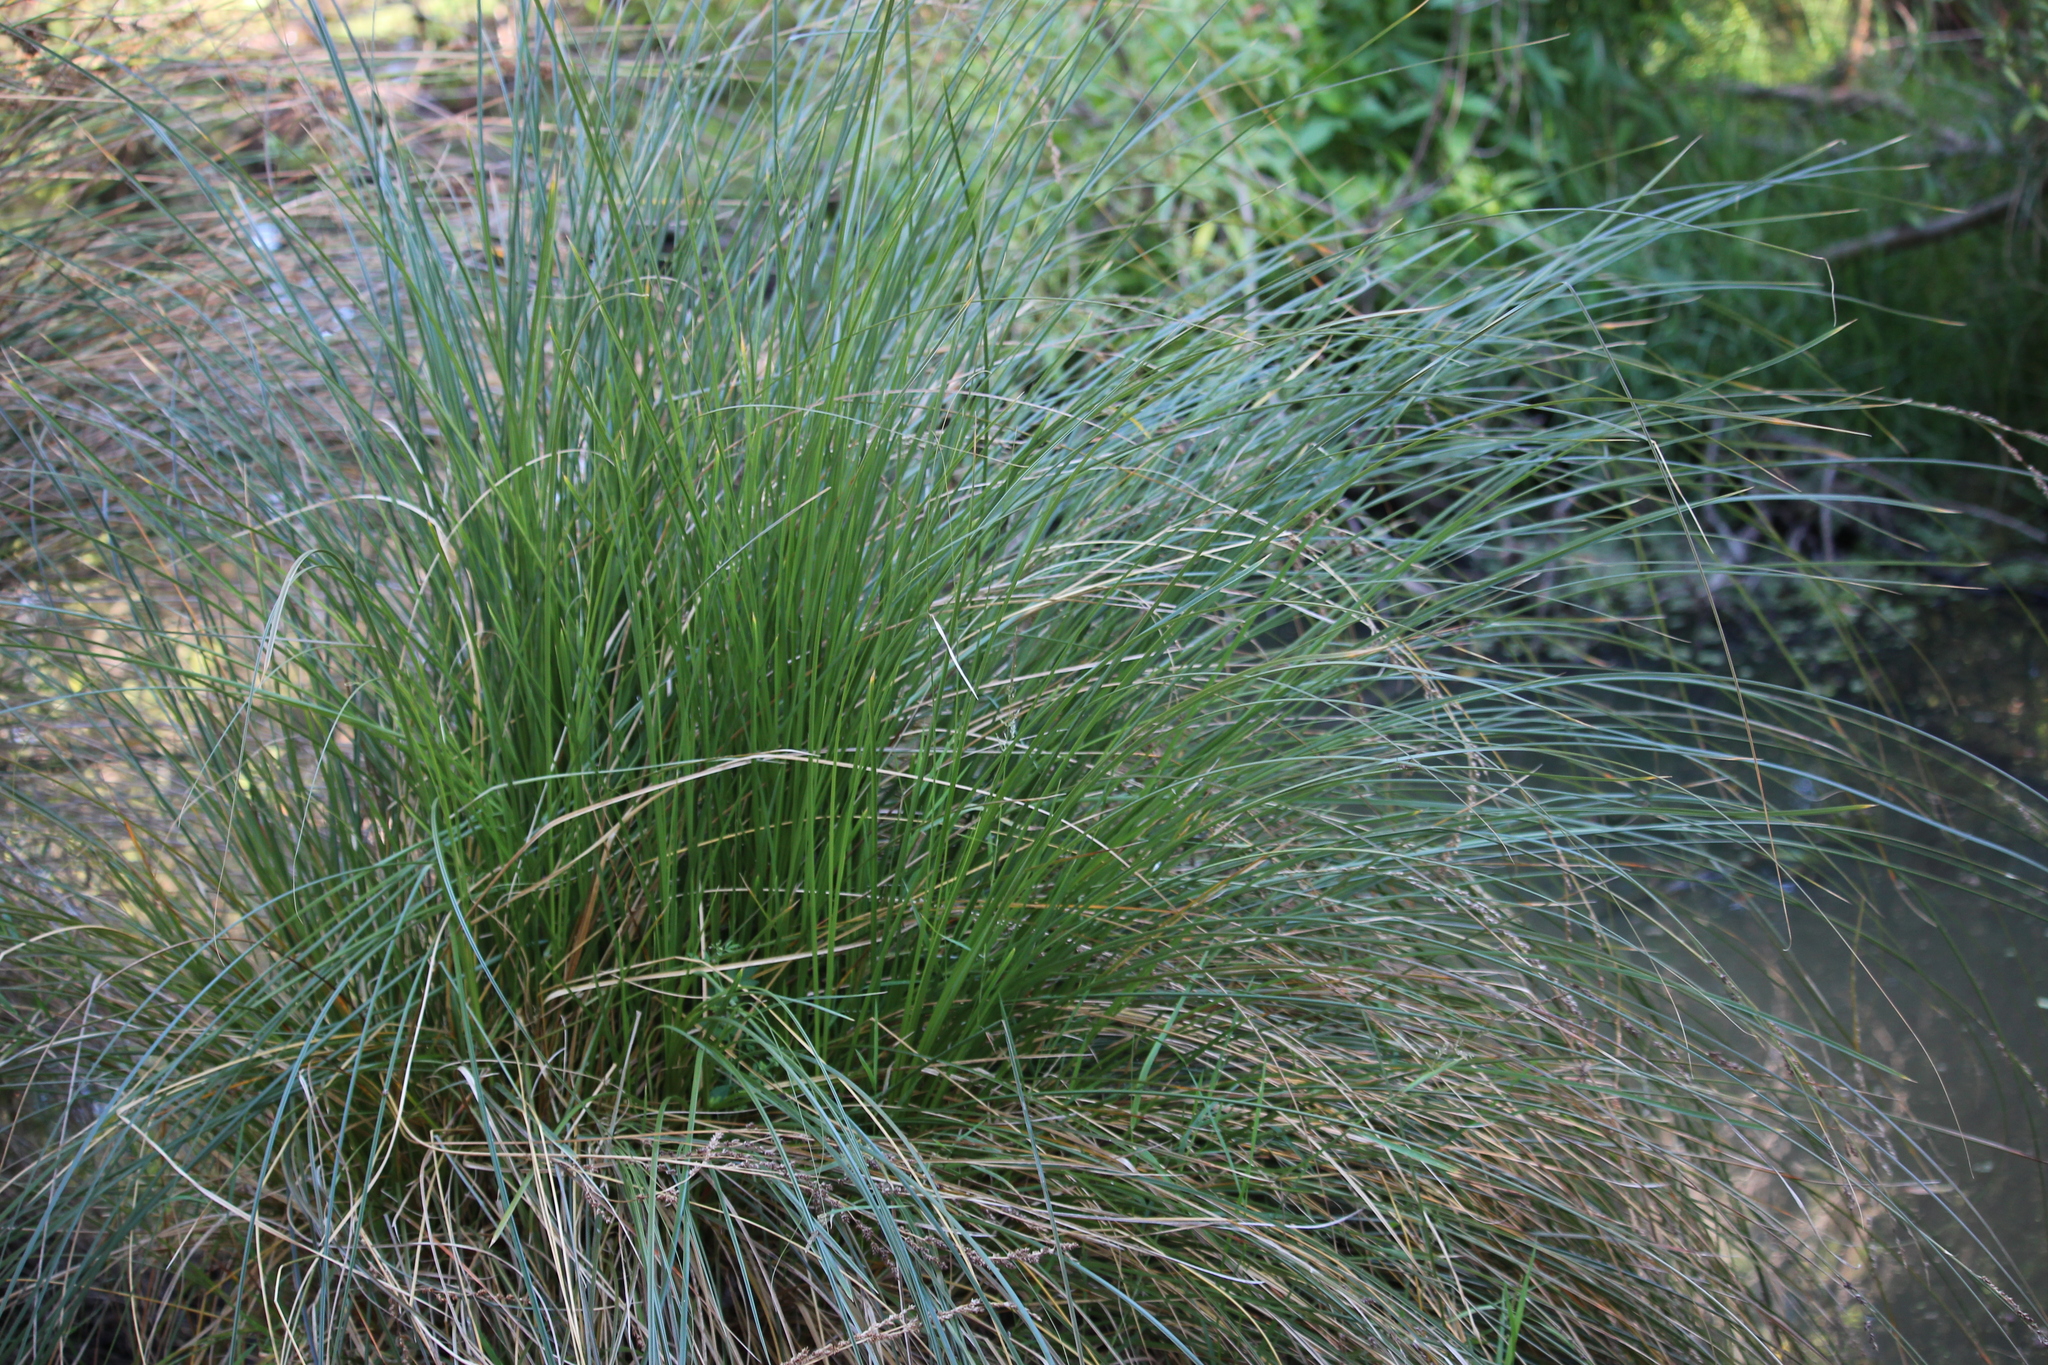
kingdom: Plantae
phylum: Tracheophyta
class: Liliopsida
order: Poales
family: Cyperaceae
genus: Carex
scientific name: Carex secta
